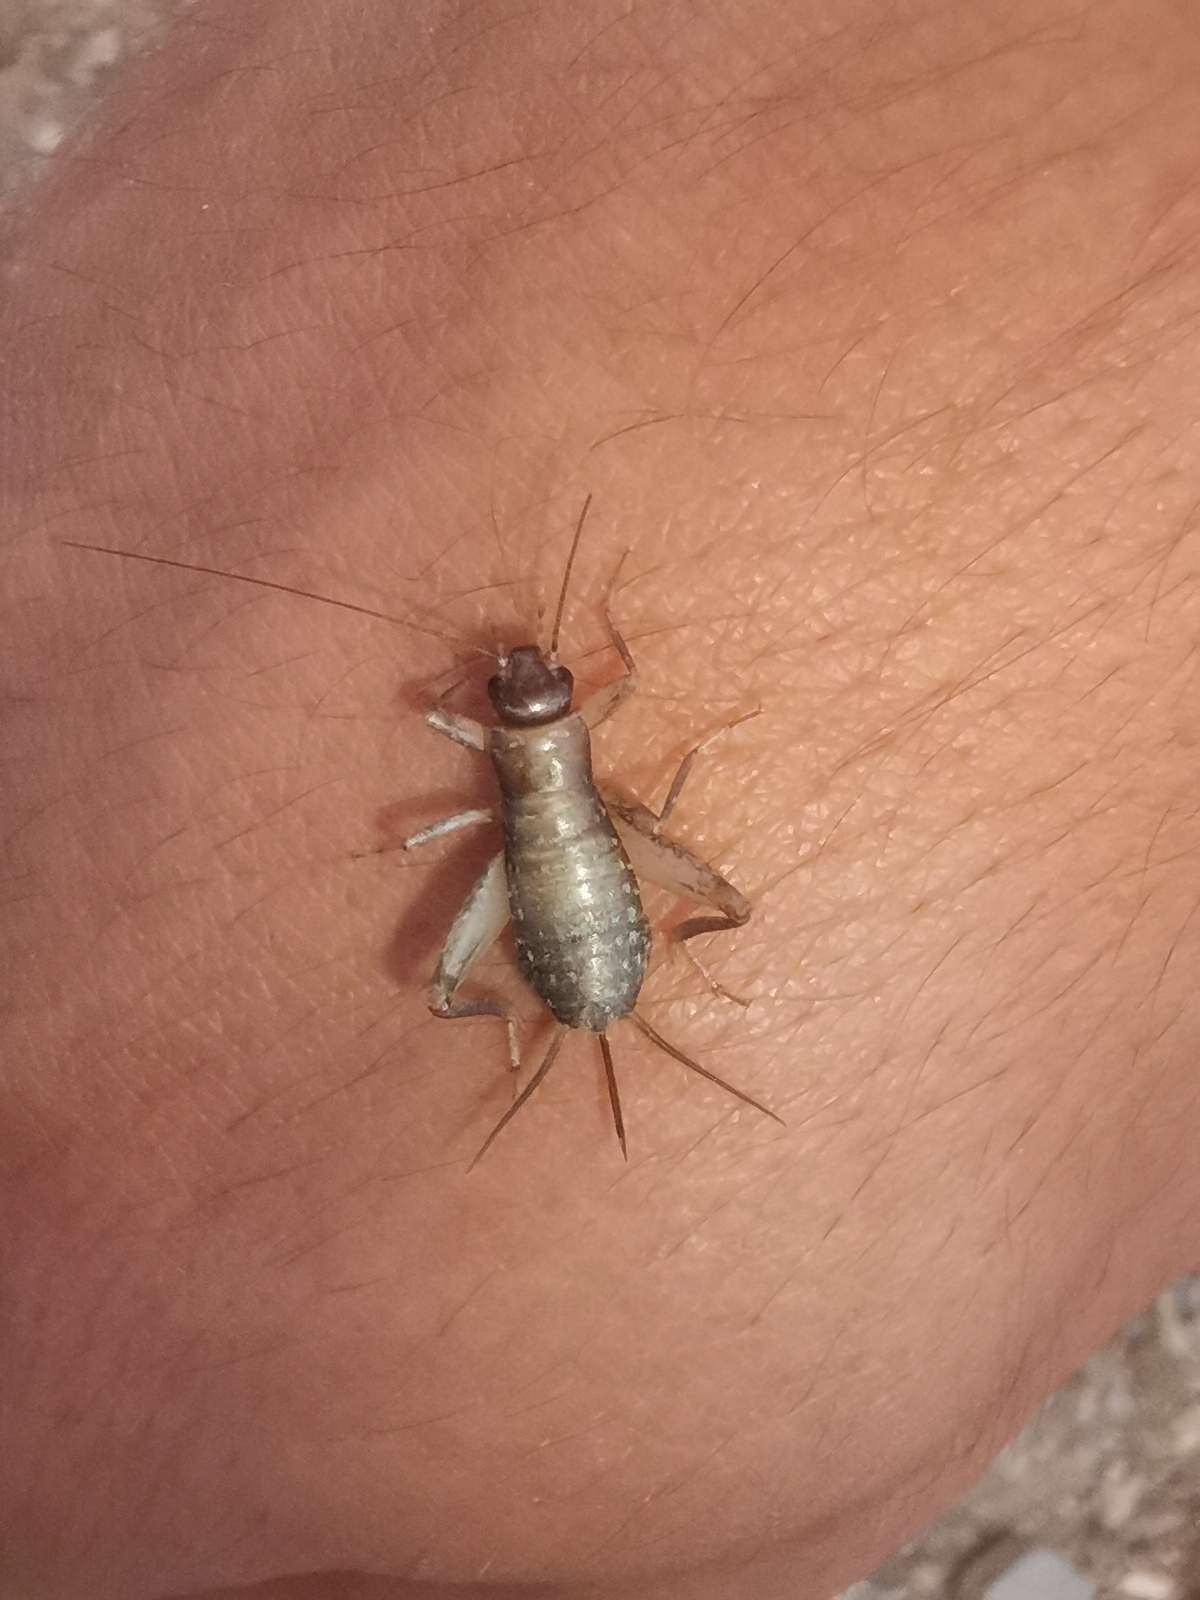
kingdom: Animalia
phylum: Arthropoda
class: Insecta
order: Orthoptera
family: Mogoplistidae
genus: Pseudomogoplistes
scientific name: Pseudomogoplistes squamiger
